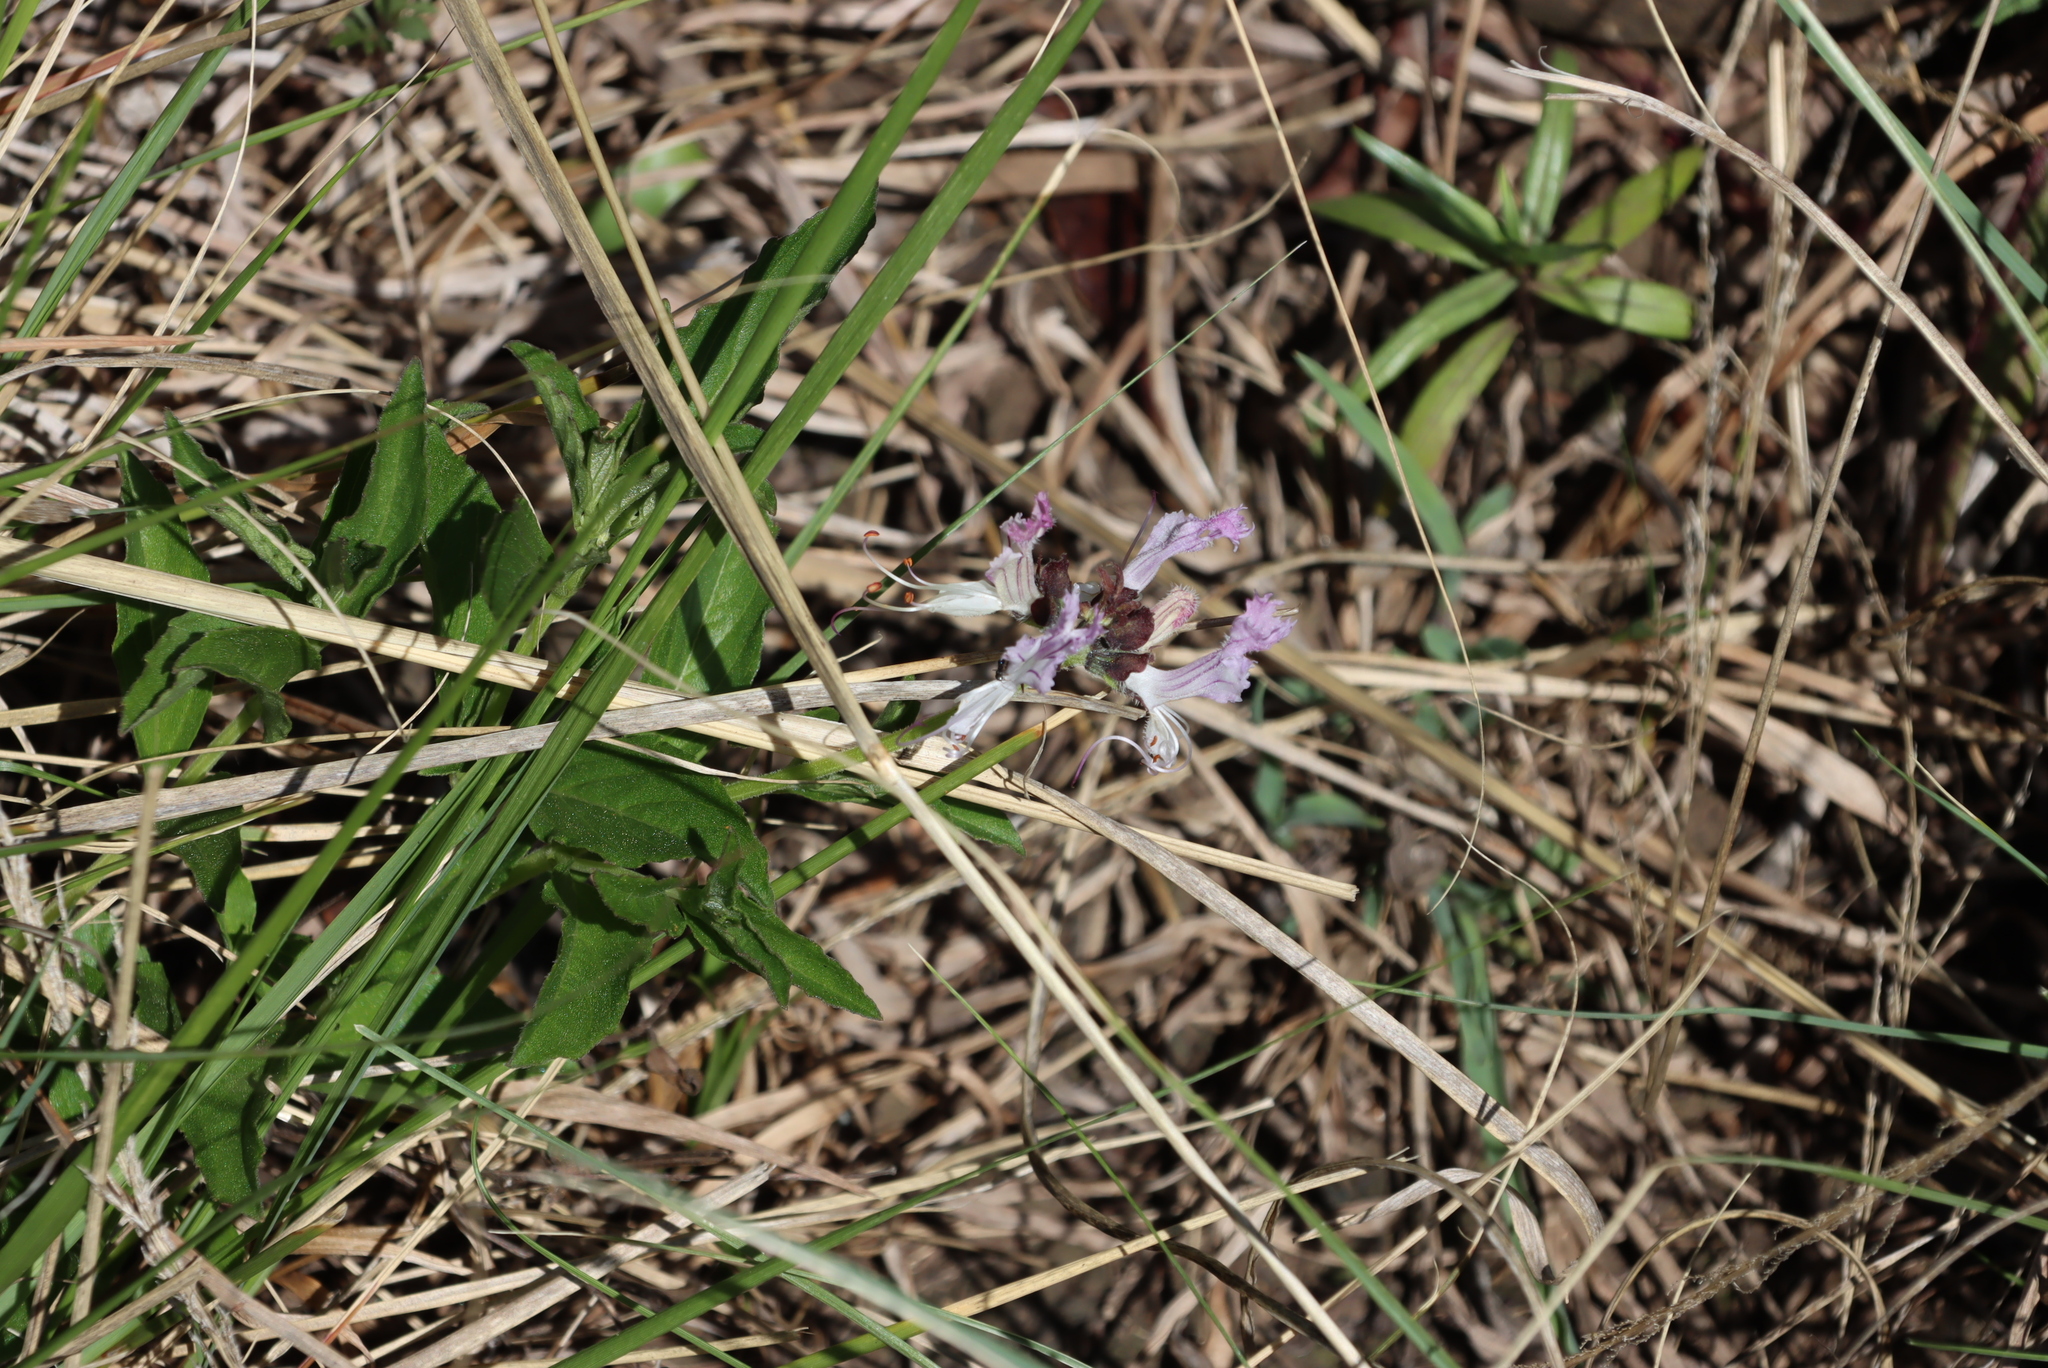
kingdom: Plantae
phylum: Tracheophyta
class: Magnoliopsida
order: Lamiales
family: Lamiaceae
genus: Ocimum
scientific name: Ocimum obovatum
